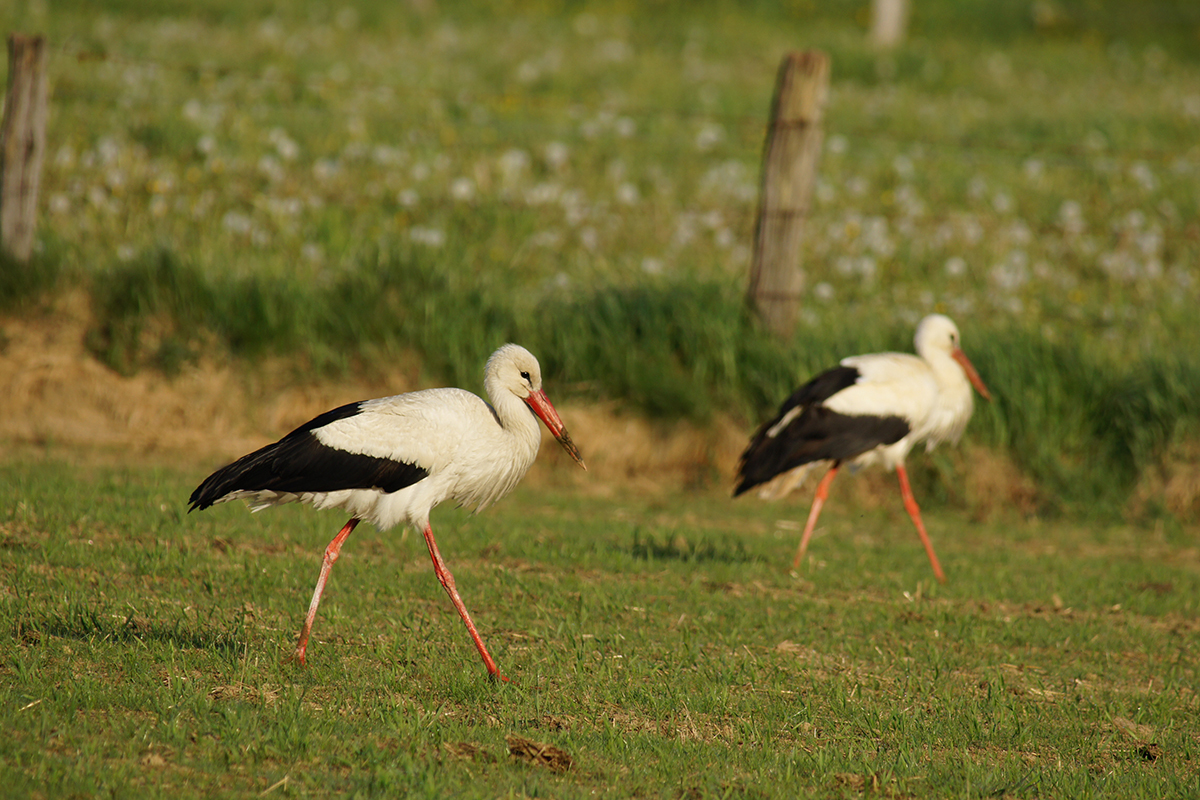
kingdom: Animalia
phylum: Chordata
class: Aves
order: Ciconiiformes
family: Ciconiidae
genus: Ciconia
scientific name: Ciconia ciconia
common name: White stork
